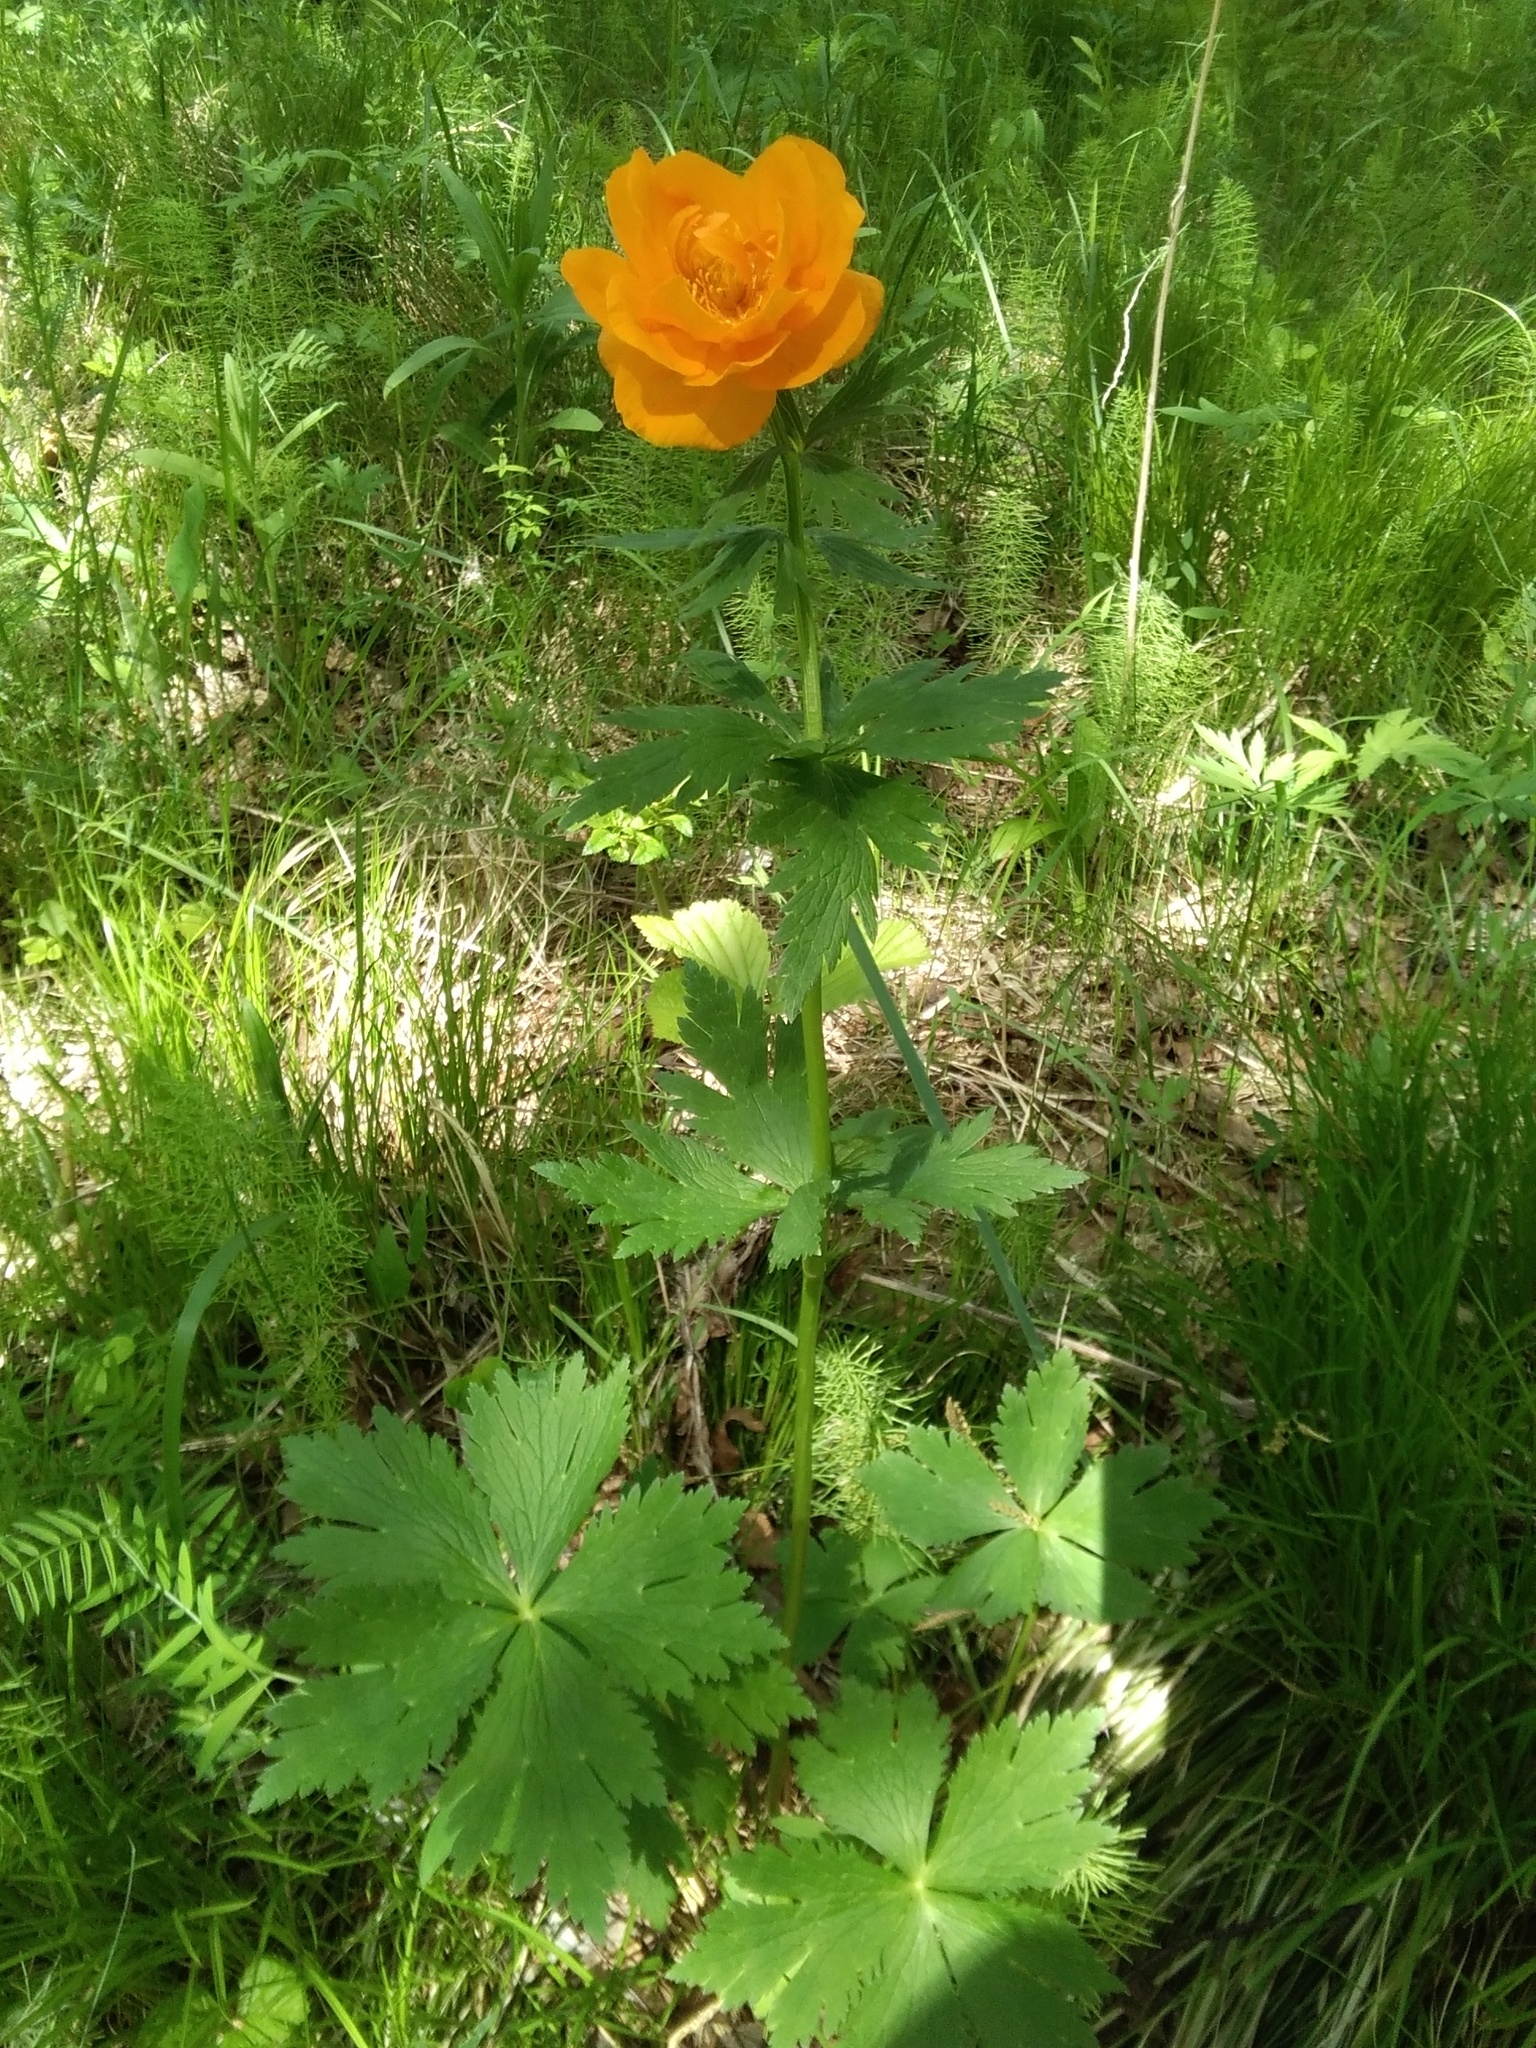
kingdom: Plantae
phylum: Tracheophyta
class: Magnoliopsida
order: Ranunculales
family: Ranunculaceae
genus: Trollius
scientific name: Trollius asiaticus
